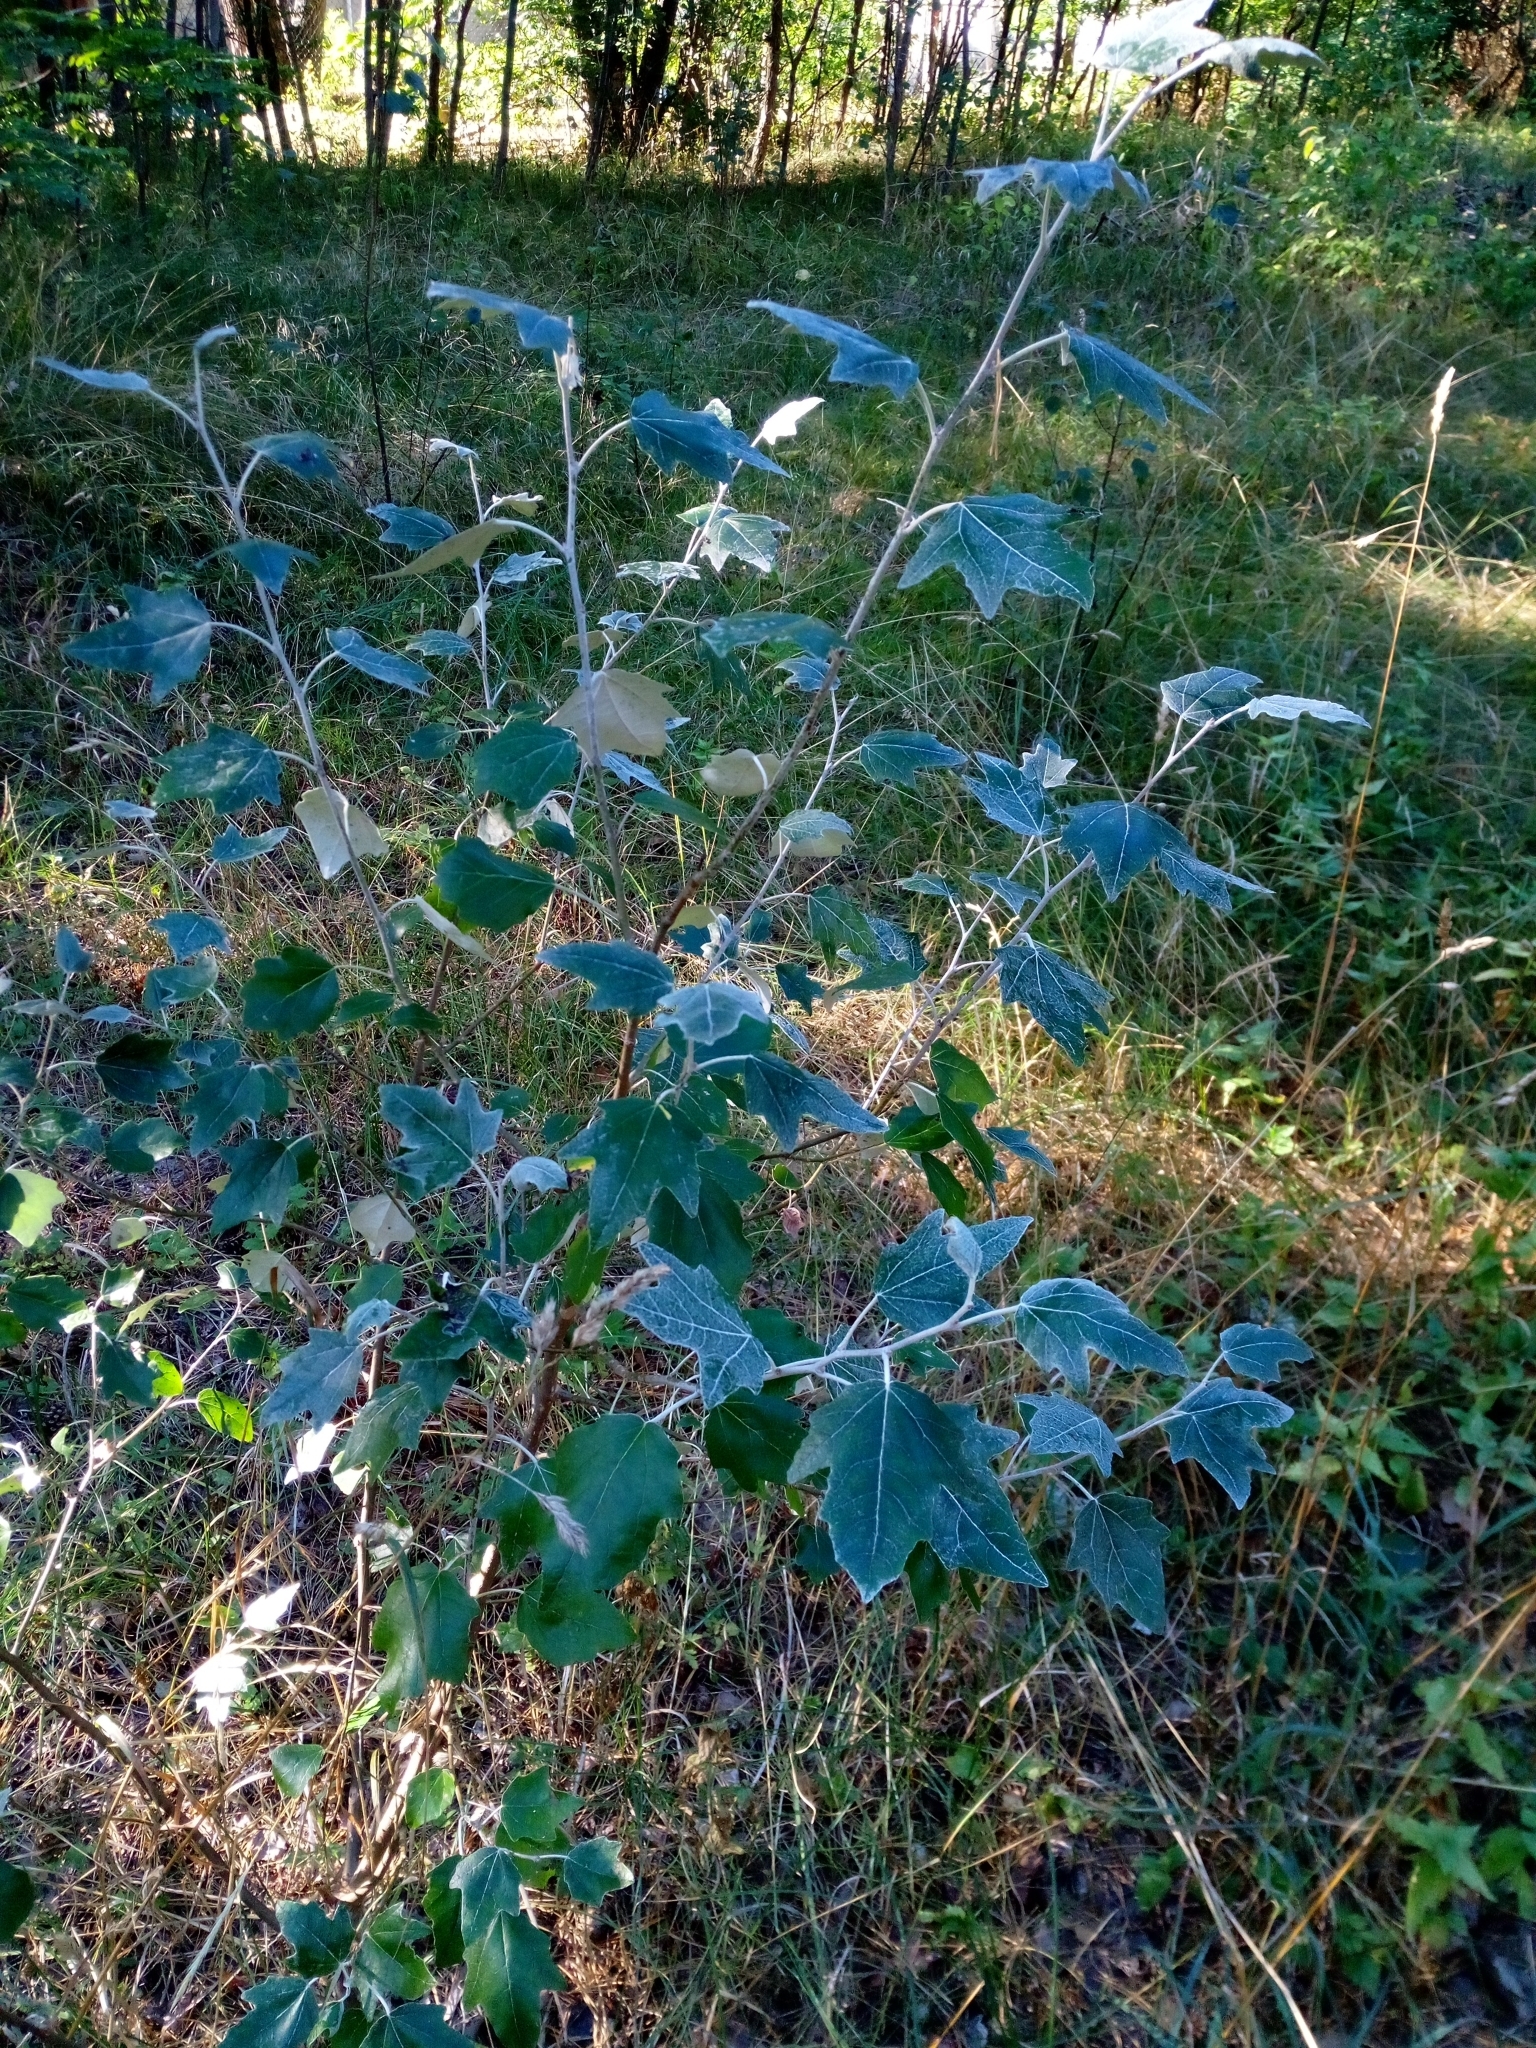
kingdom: Plantae
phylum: Tracheophyta
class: Magnoliopsida
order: Malpighiales
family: Salicaceae
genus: Populus
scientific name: Populus alba
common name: White poplar
